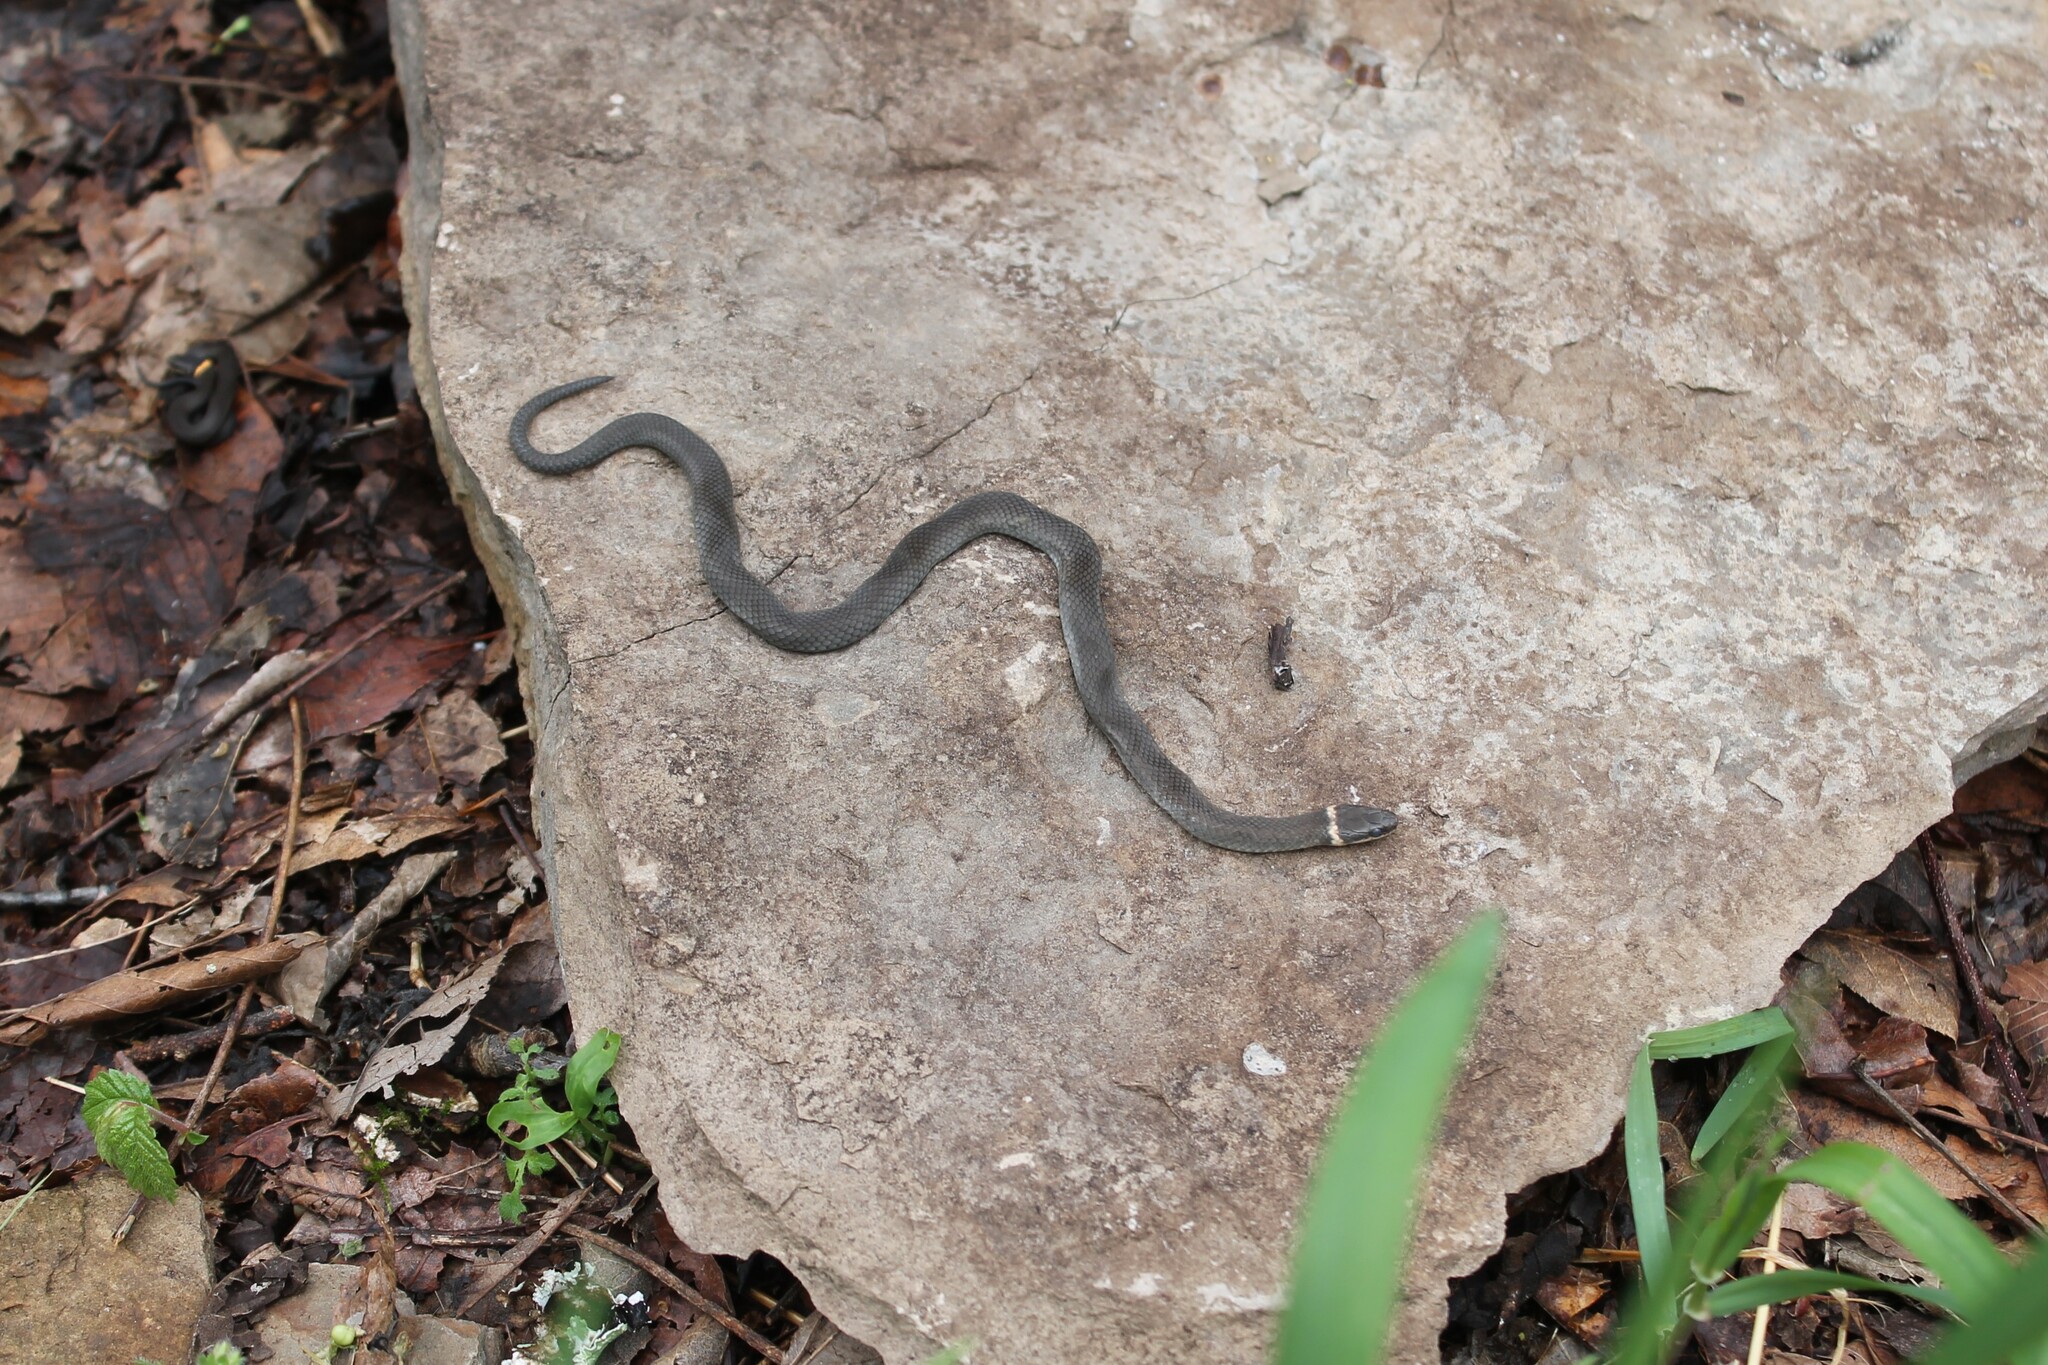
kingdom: Animalia
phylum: Chordata
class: Squamata
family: Colubridae
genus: Diadophis
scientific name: Diadophis punctatus
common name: Ringneck snake
